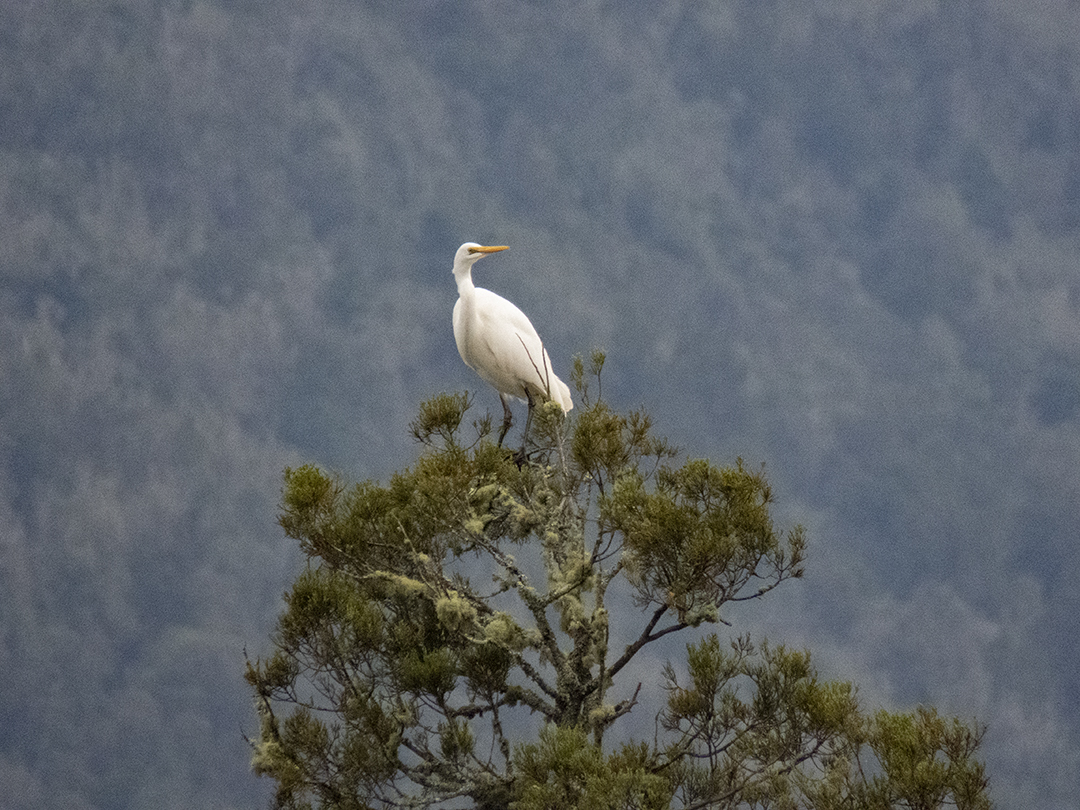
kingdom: Animalia
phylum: Chordata
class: Aves
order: Pelecaniformes
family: Ardeidae
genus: Ardea
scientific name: Ardea modesta
